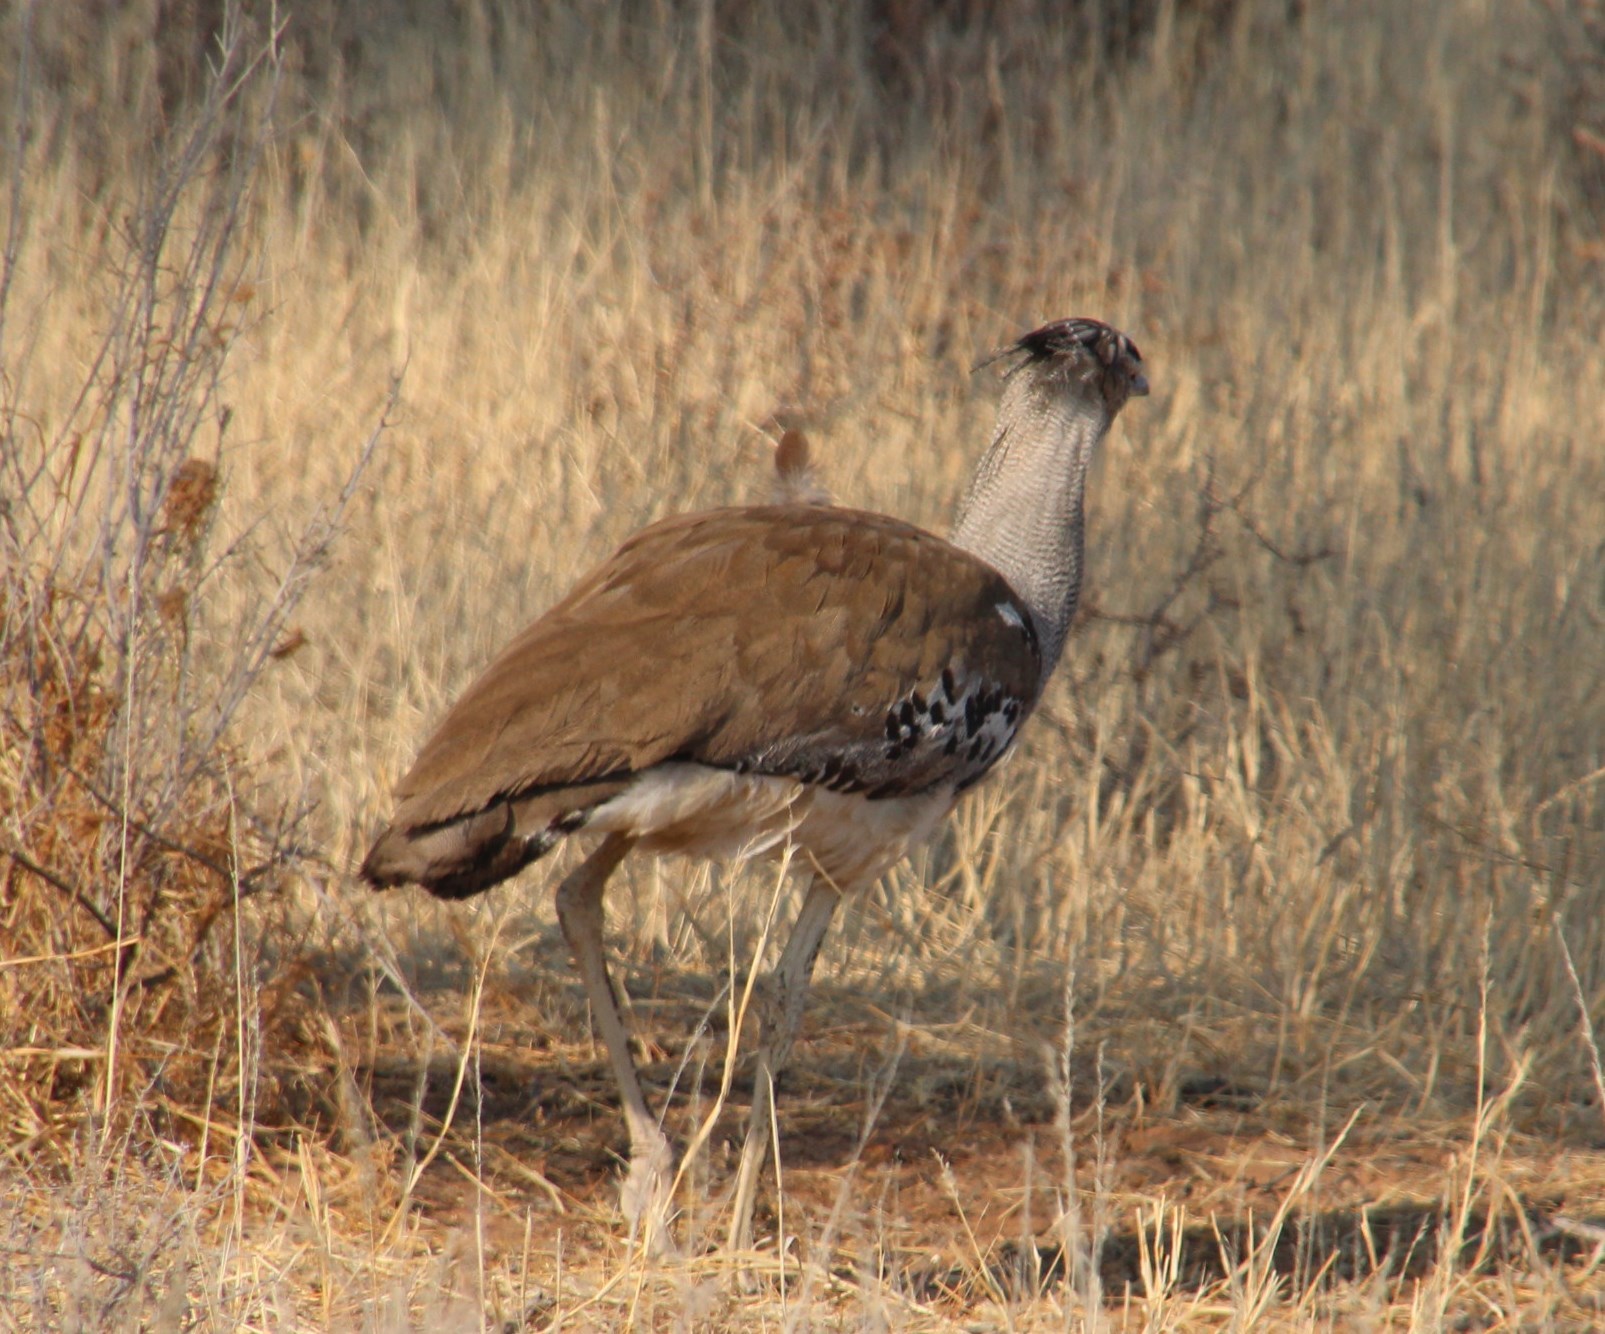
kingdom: Animalia
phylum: Chordata
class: Aves
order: Otidiformes
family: Otididae
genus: Ardeotis
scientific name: Ardeotis kori
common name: Kori bustard
